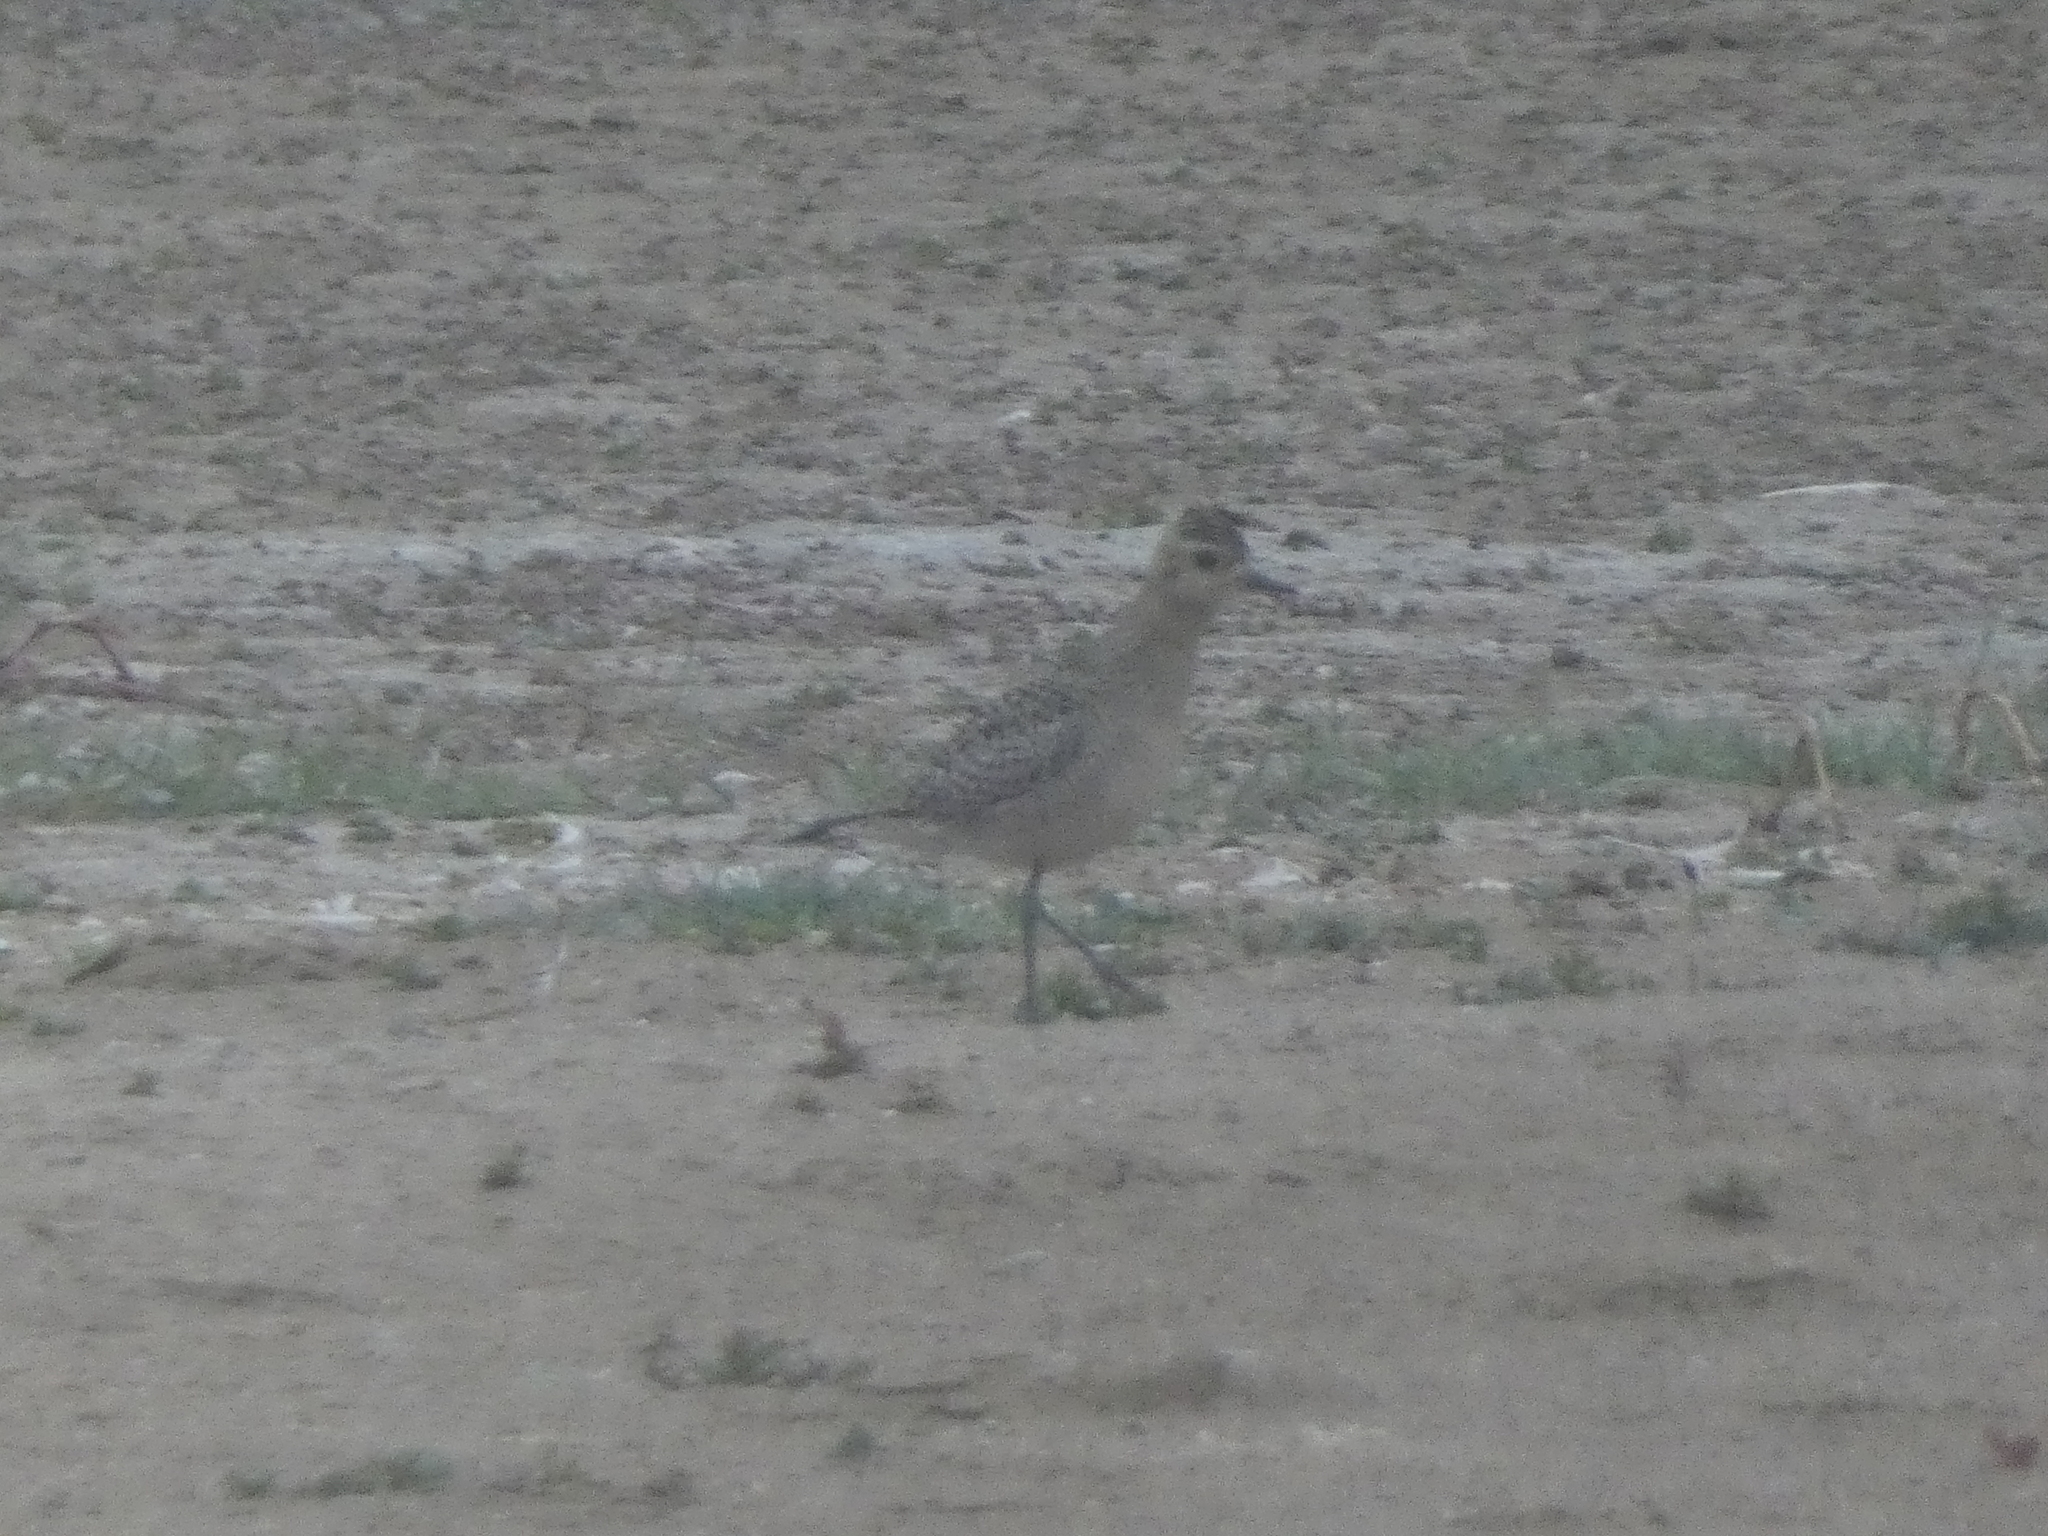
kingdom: Animalia
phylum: Chordata
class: Aves
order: Charadriiformes
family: Charadriidae
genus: Pluvialis
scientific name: Pluvialis fulva
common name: Pacific golden plover
